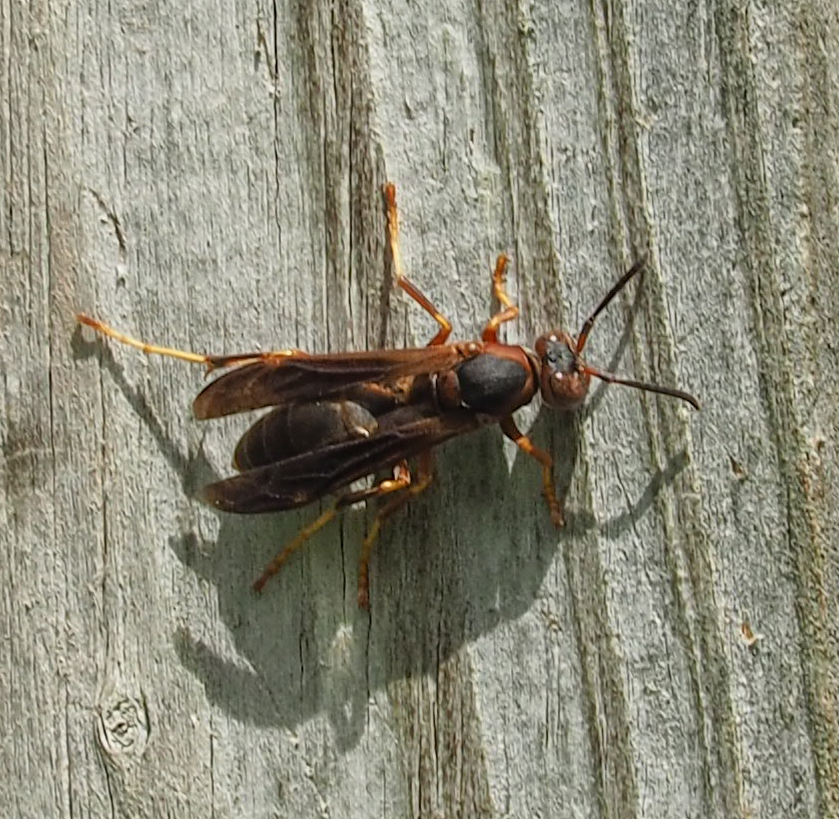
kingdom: Animalia
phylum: Arthropoda
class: Insecta
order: Hymenoptera
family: Eumenidae
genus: Polistes
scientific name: Polistes fuscatus
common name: Dark paper wasp
